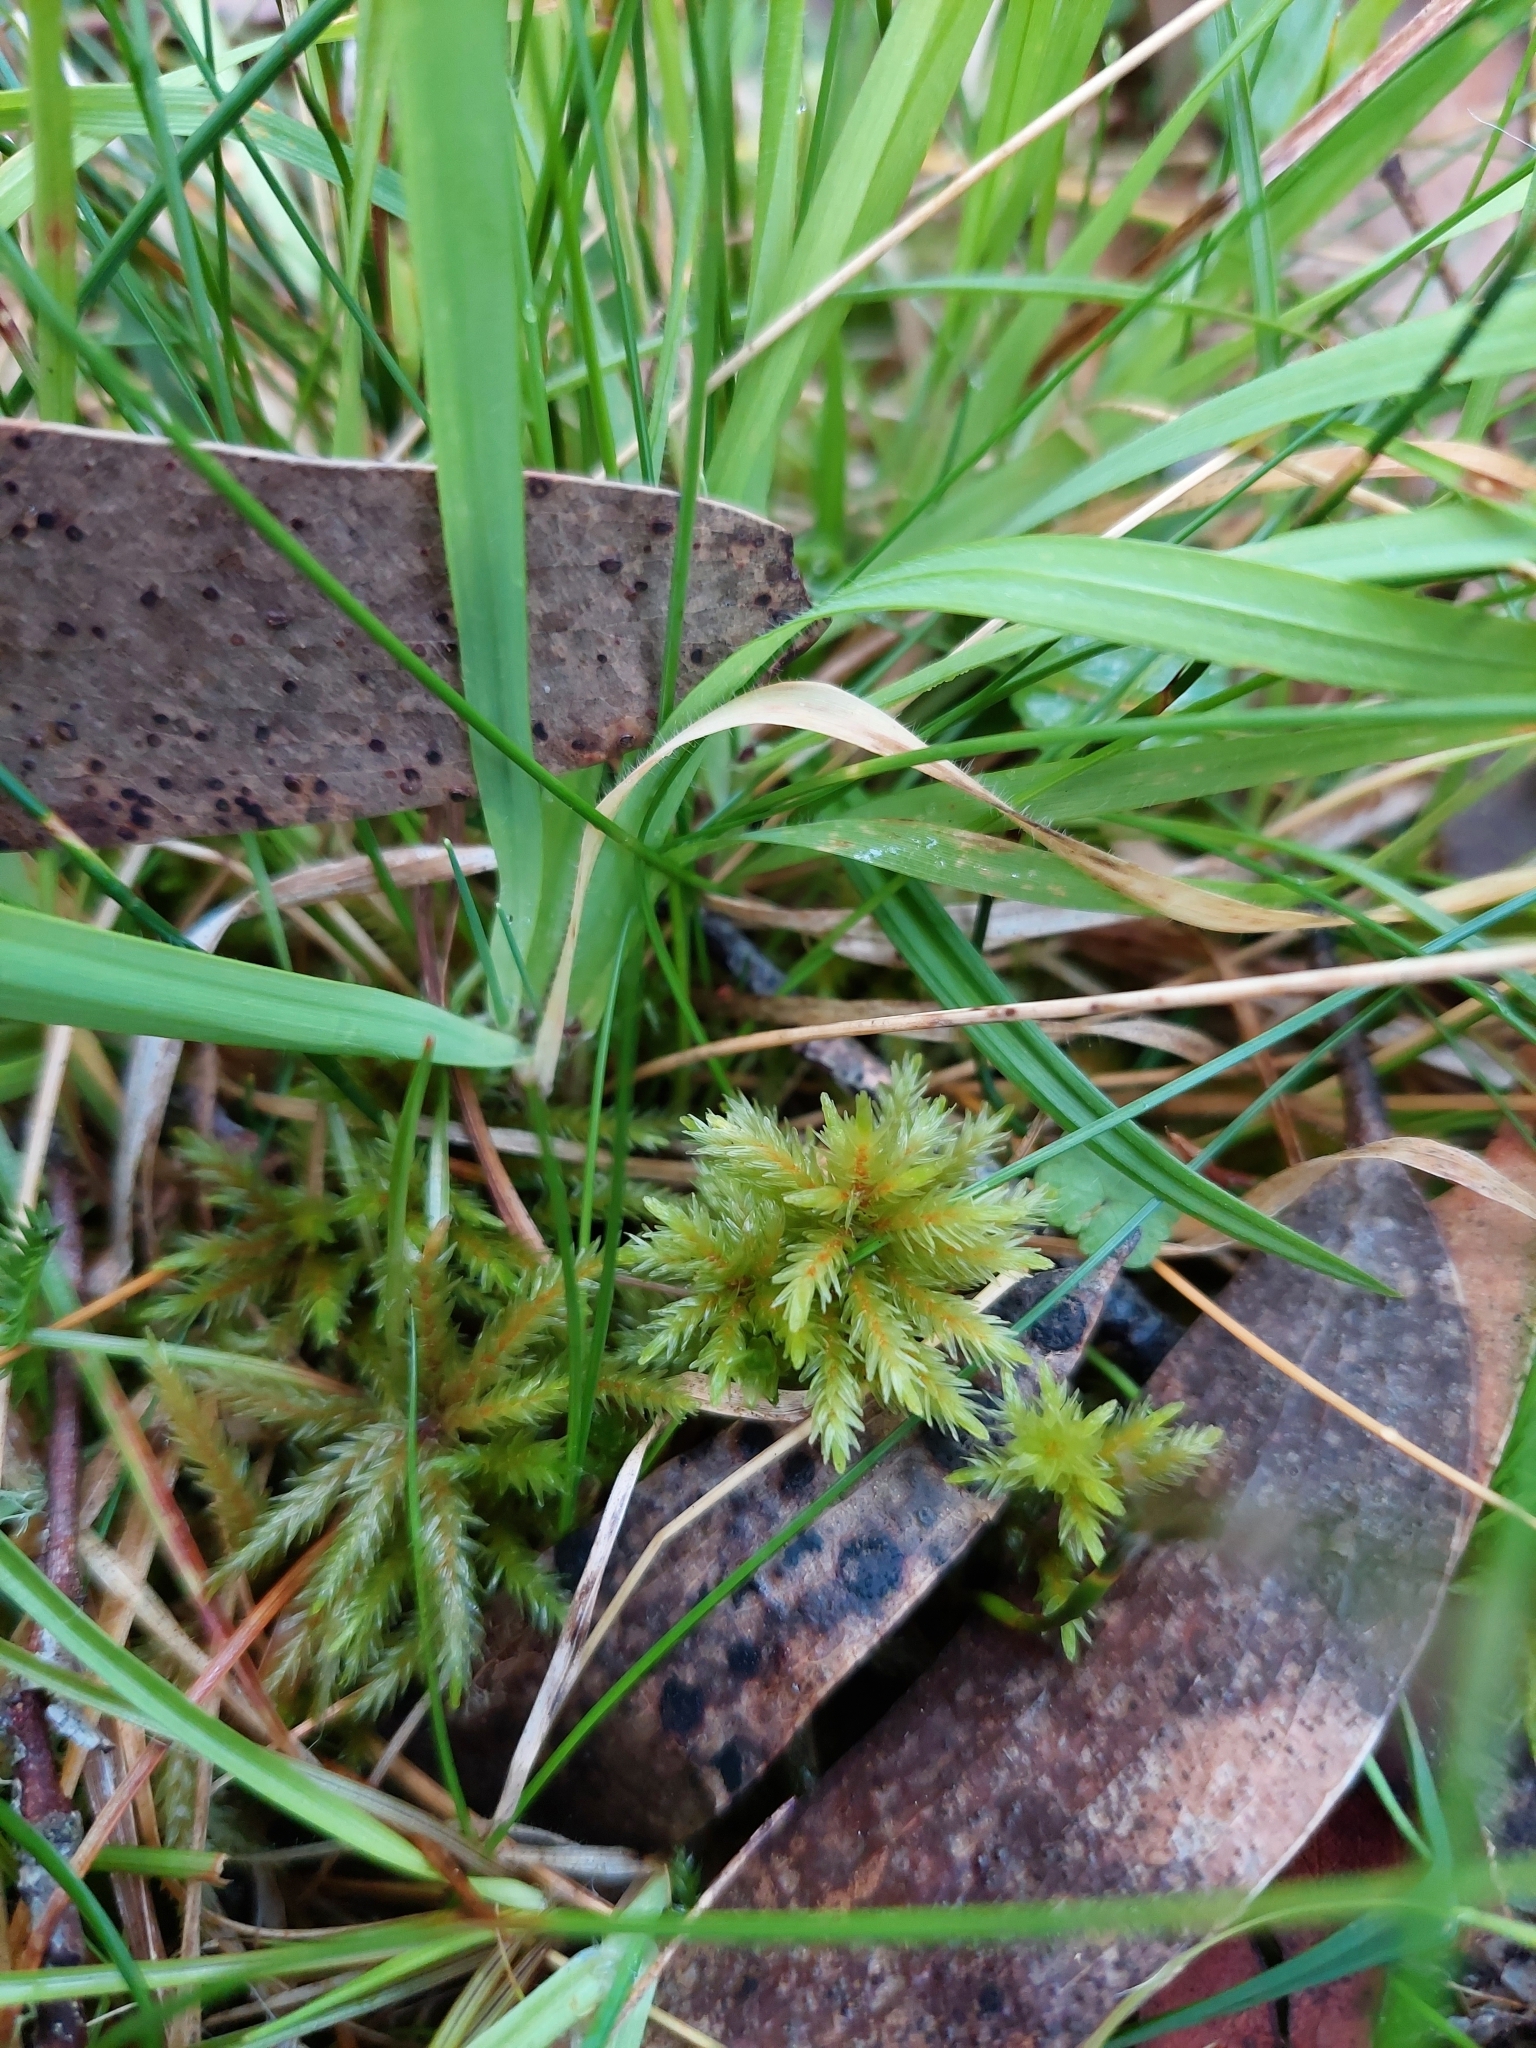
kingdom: Plantae
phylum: Bryophyta
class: Bryopsida
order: Hypnales
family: Climaciaceae
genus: Climacium
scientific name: Climacium dendroides
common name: Northern tree moss
